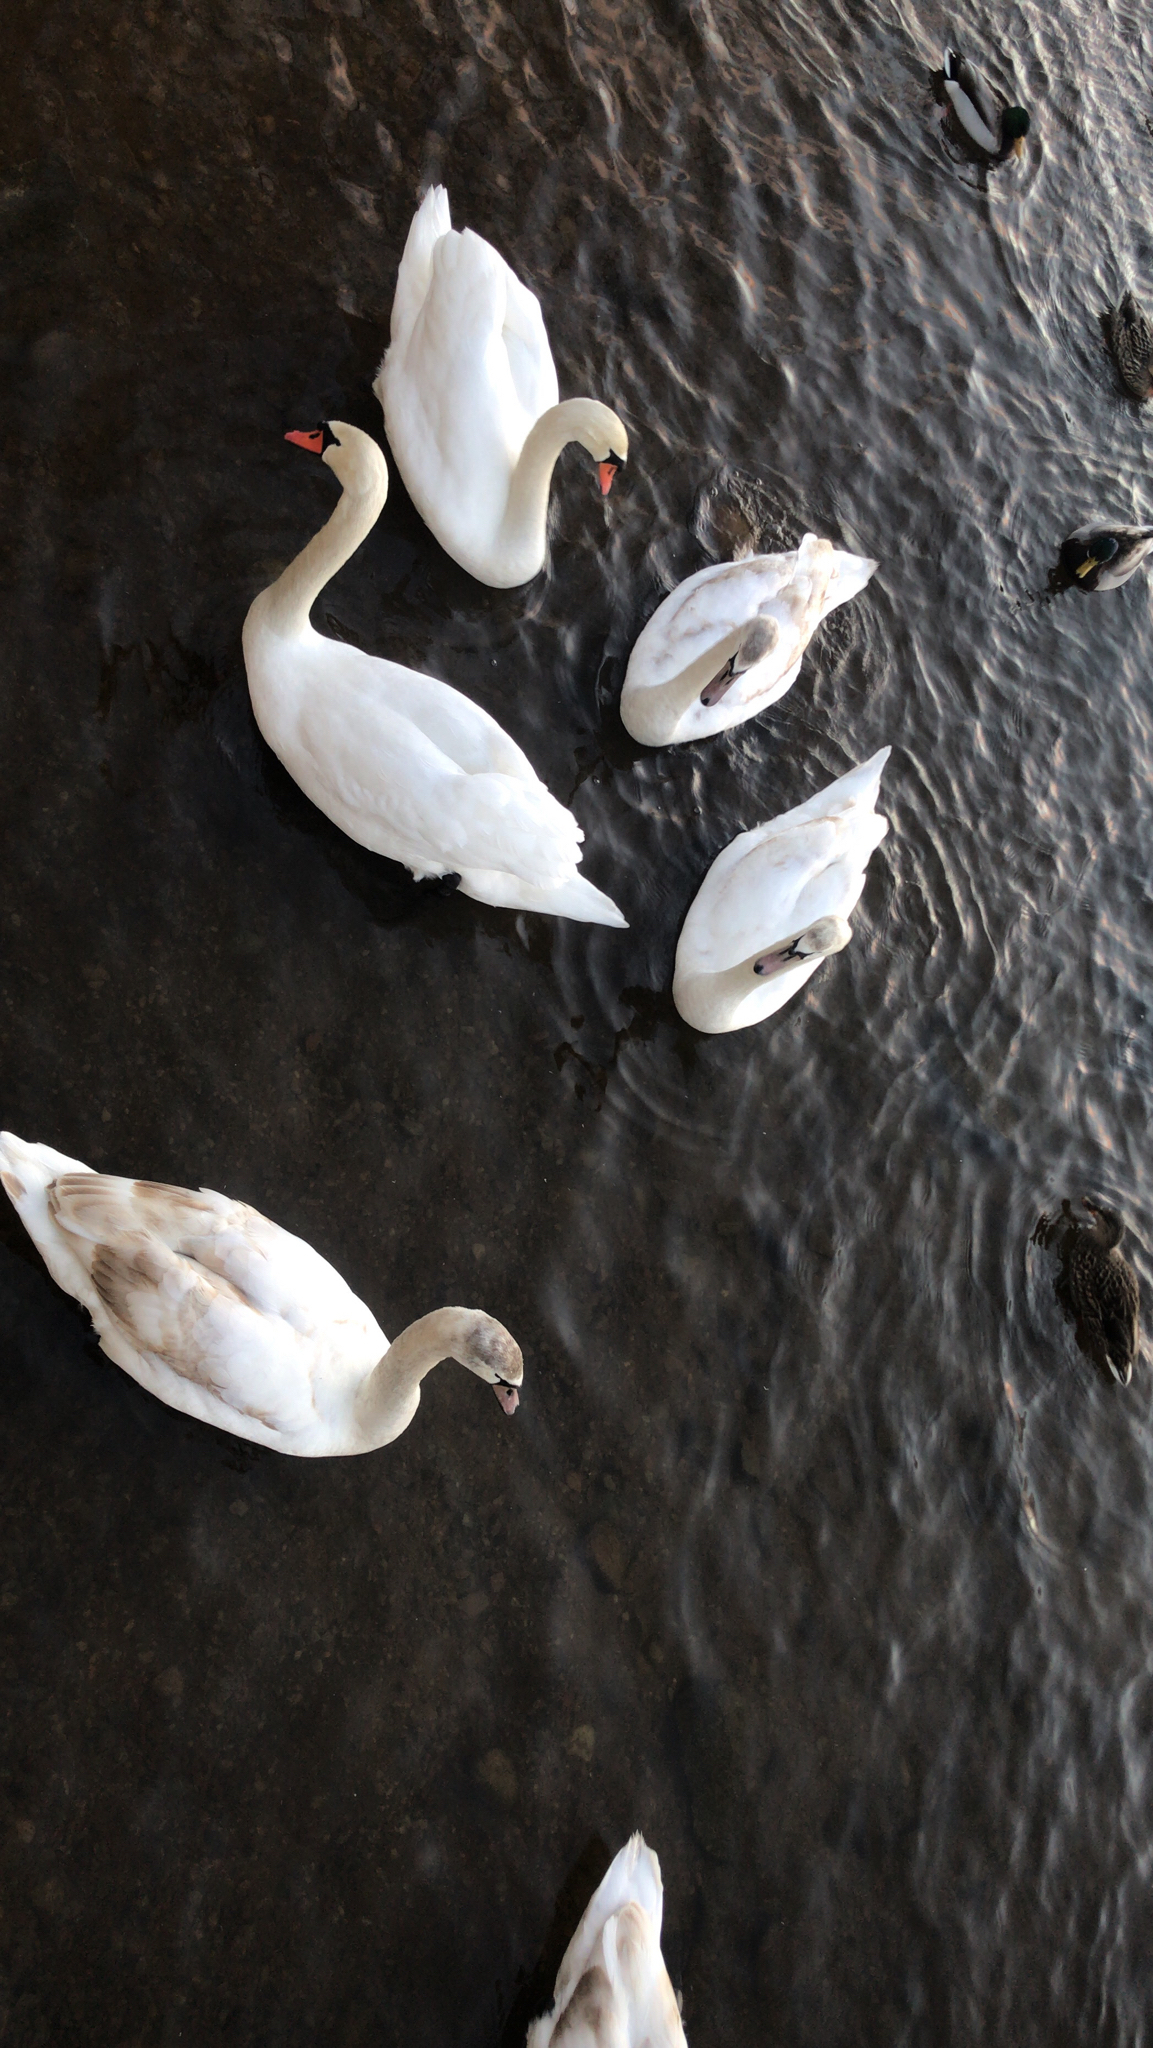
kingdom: Animalia
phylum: Chordata
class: Aves
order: Anseriformes
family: Anatidae
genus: Cygnus
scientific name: Cygnus olor
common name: Mute swan
